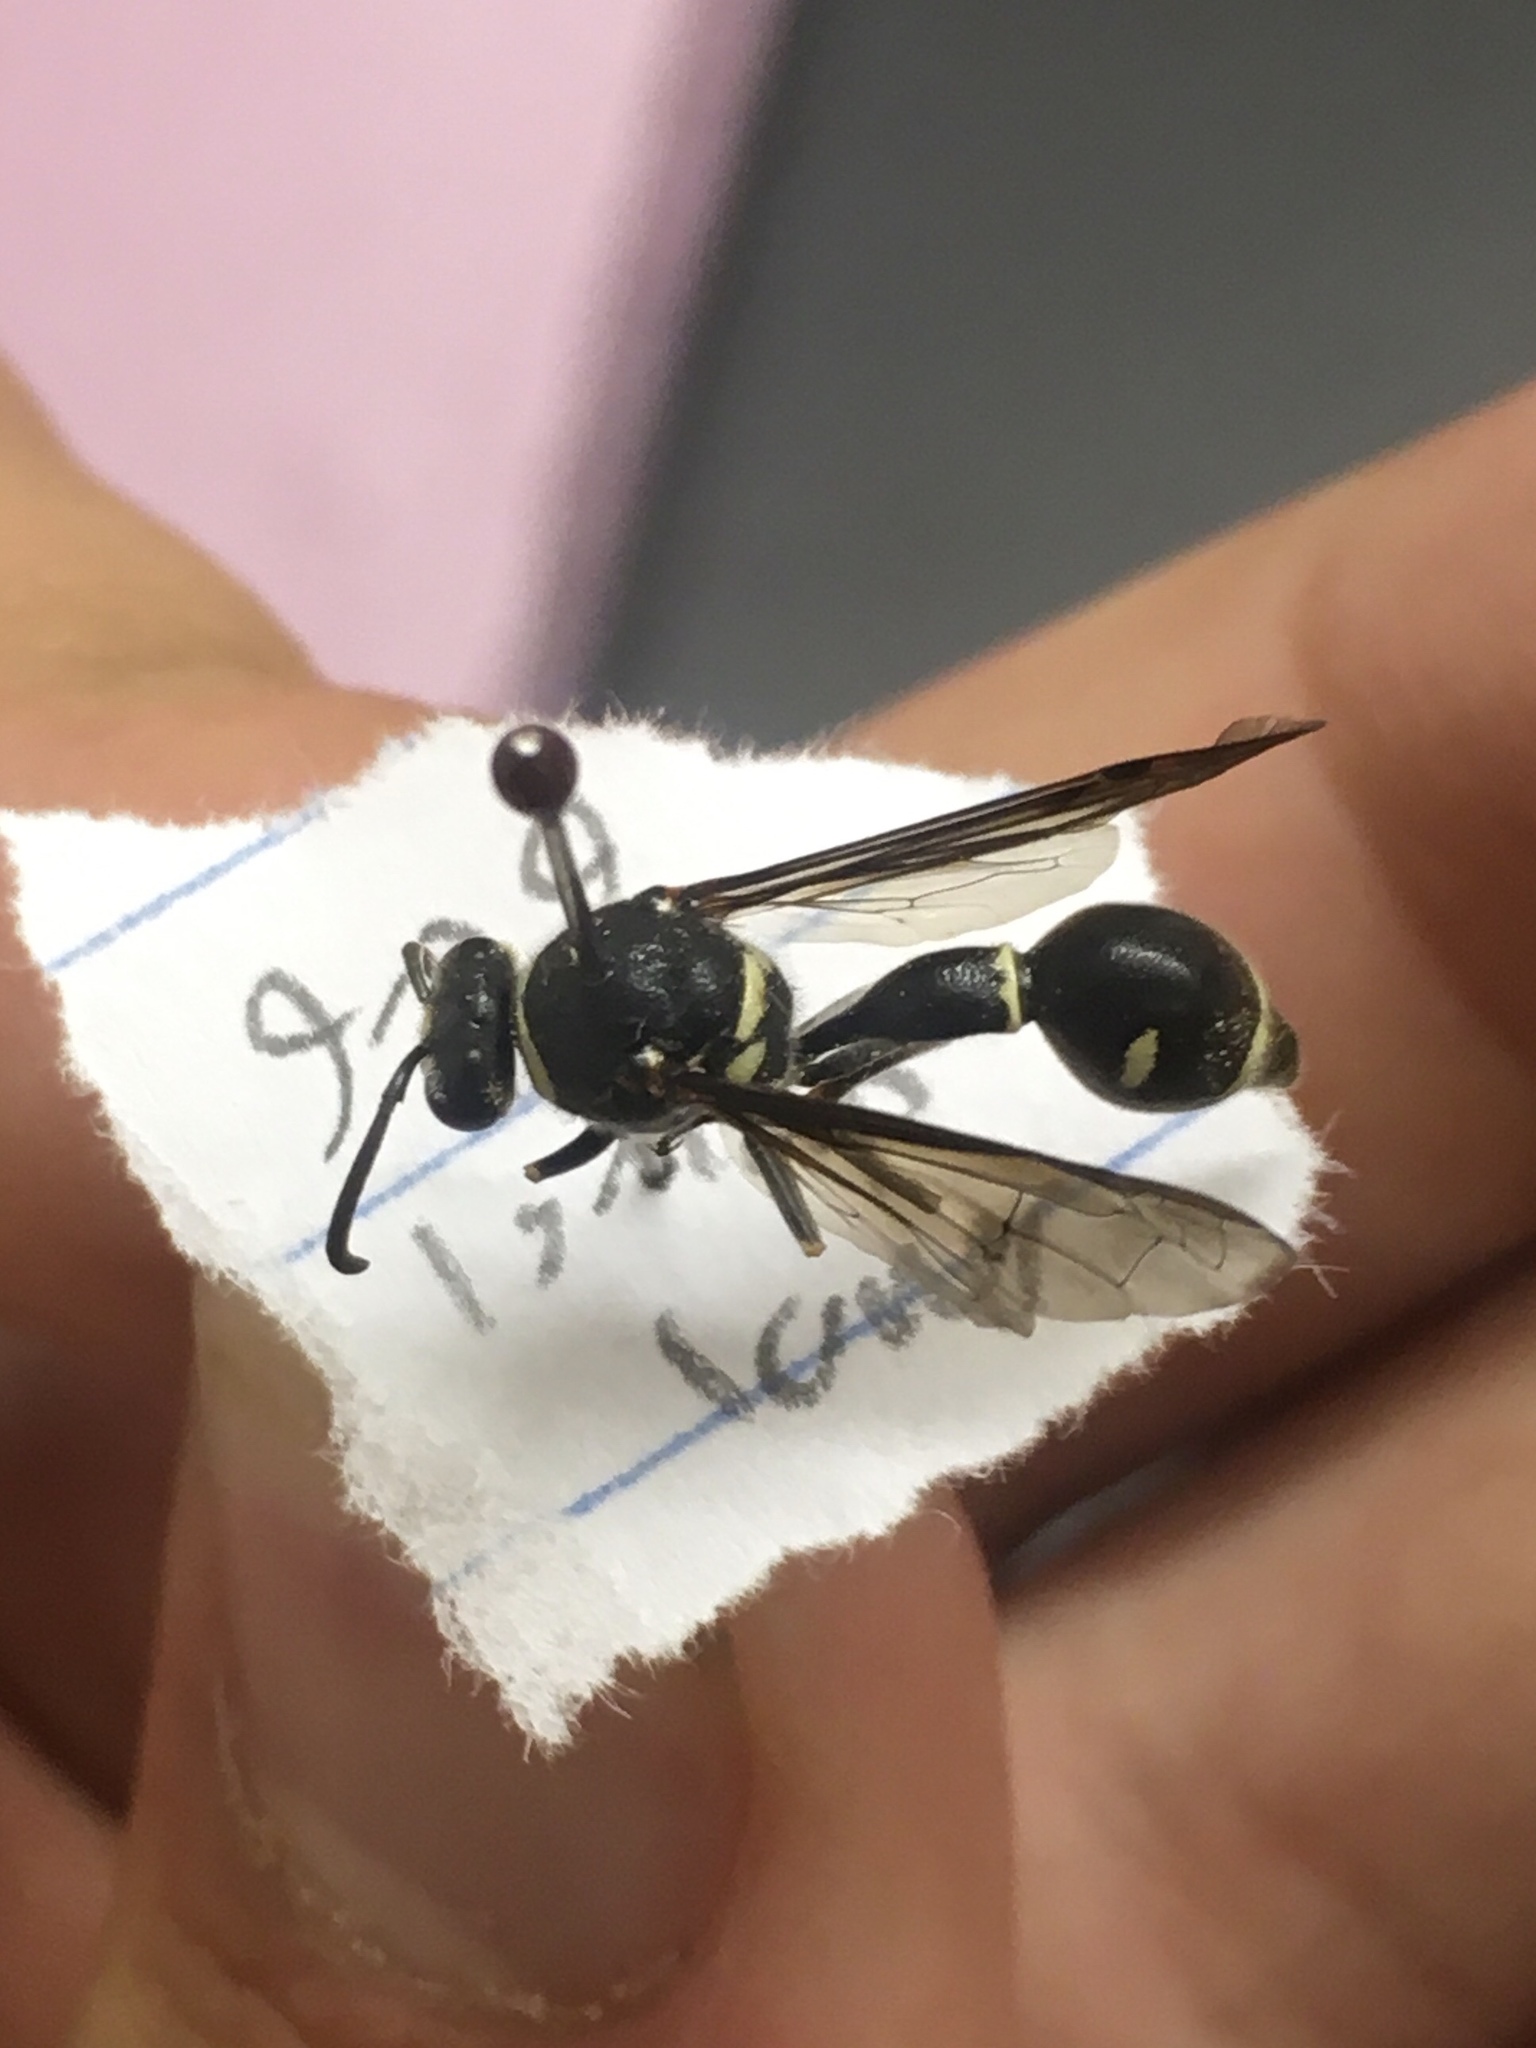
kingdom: Animalia
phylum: Arthropoda
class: Insecta
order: Hymenoptera
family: Vespidae
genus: Eumenes
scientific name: Eumenes fraternus
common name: Fraternal potter wasp
